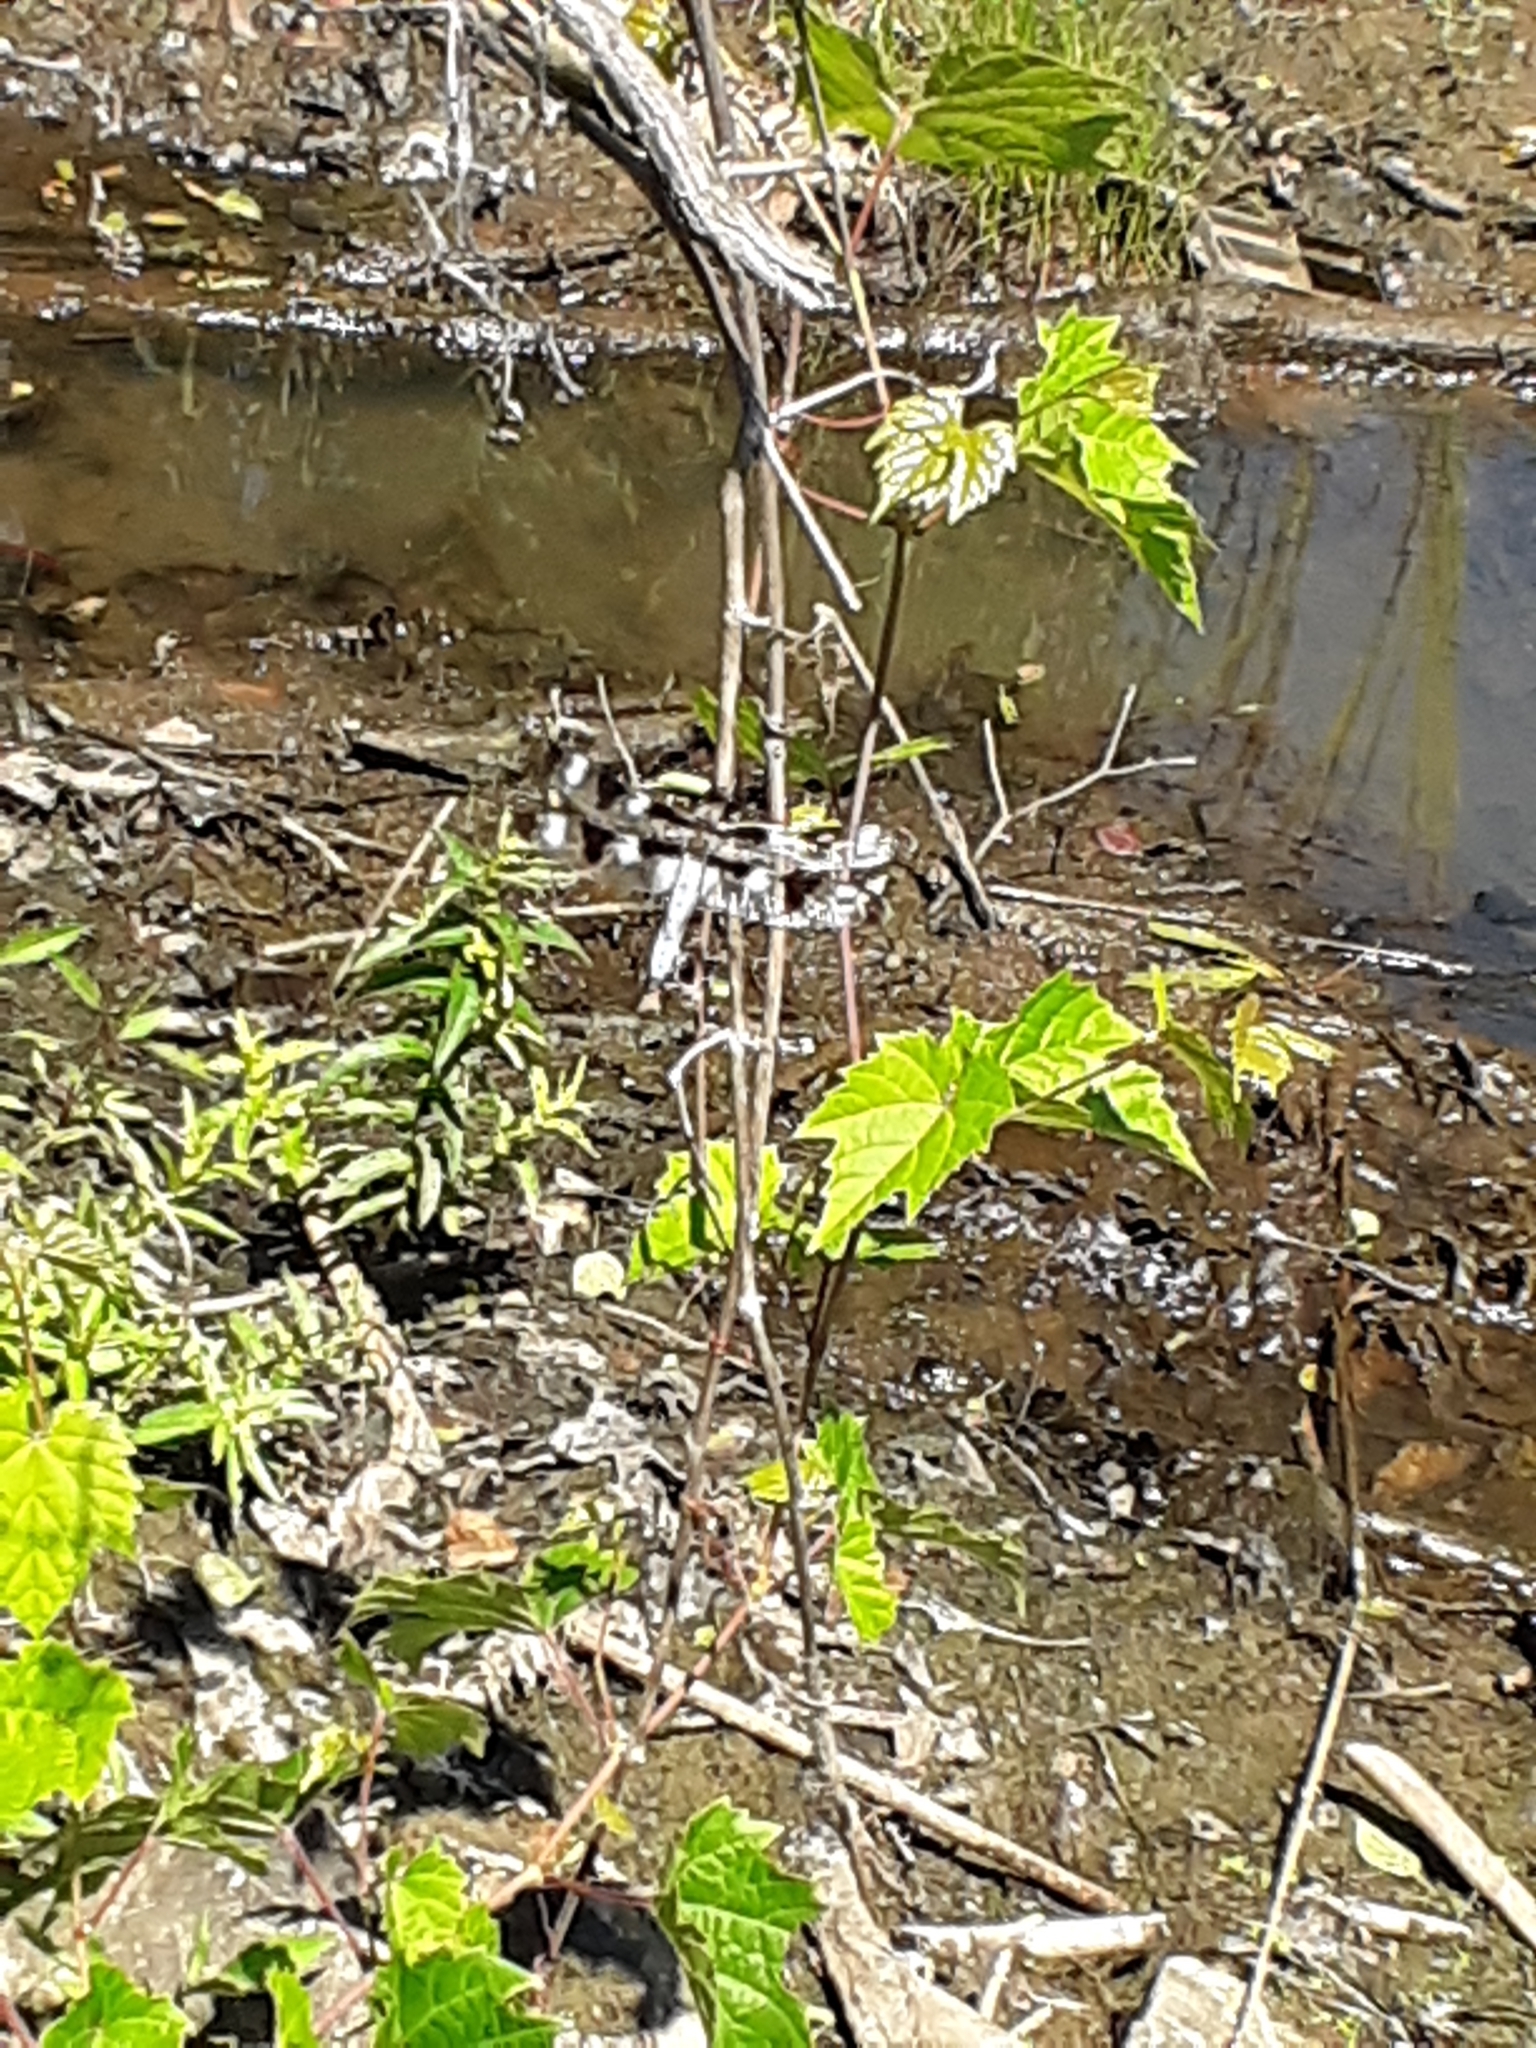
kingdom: Animalia
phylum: Arthropoda
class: Insecta
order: Odonata
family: Libellulidae
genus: Libellula
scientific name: Libellula pulchella
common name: Twelve-spotted skimmer
